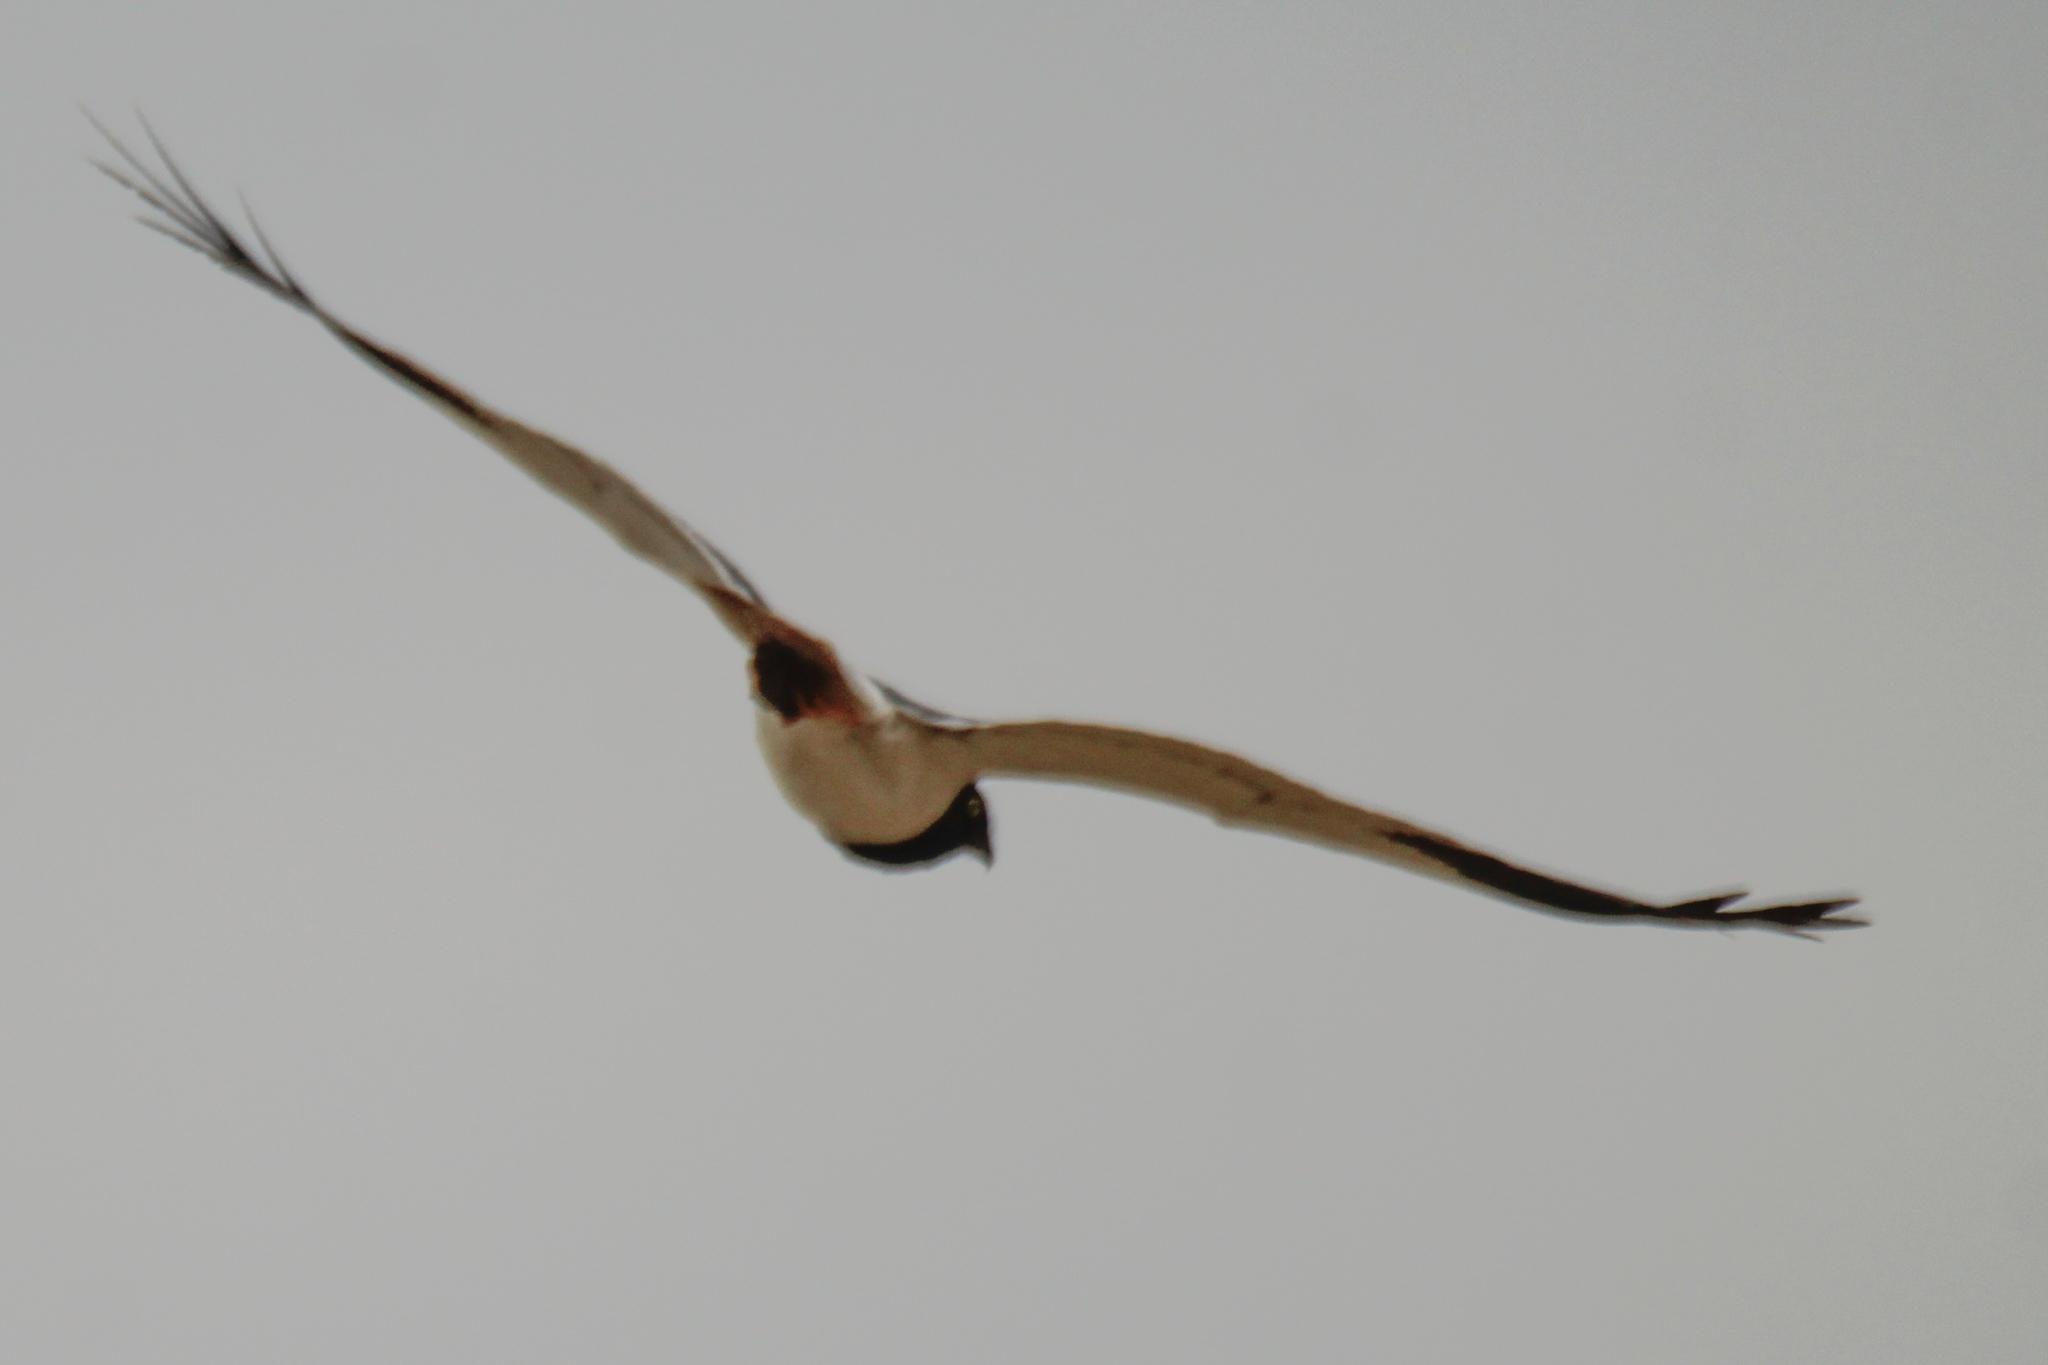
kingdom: Animalia
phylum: Chordata
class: Aves
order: Accipitriformes
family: Accipitridae
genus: Circus
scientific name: Circus melanoleucos
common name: Pied harrier
